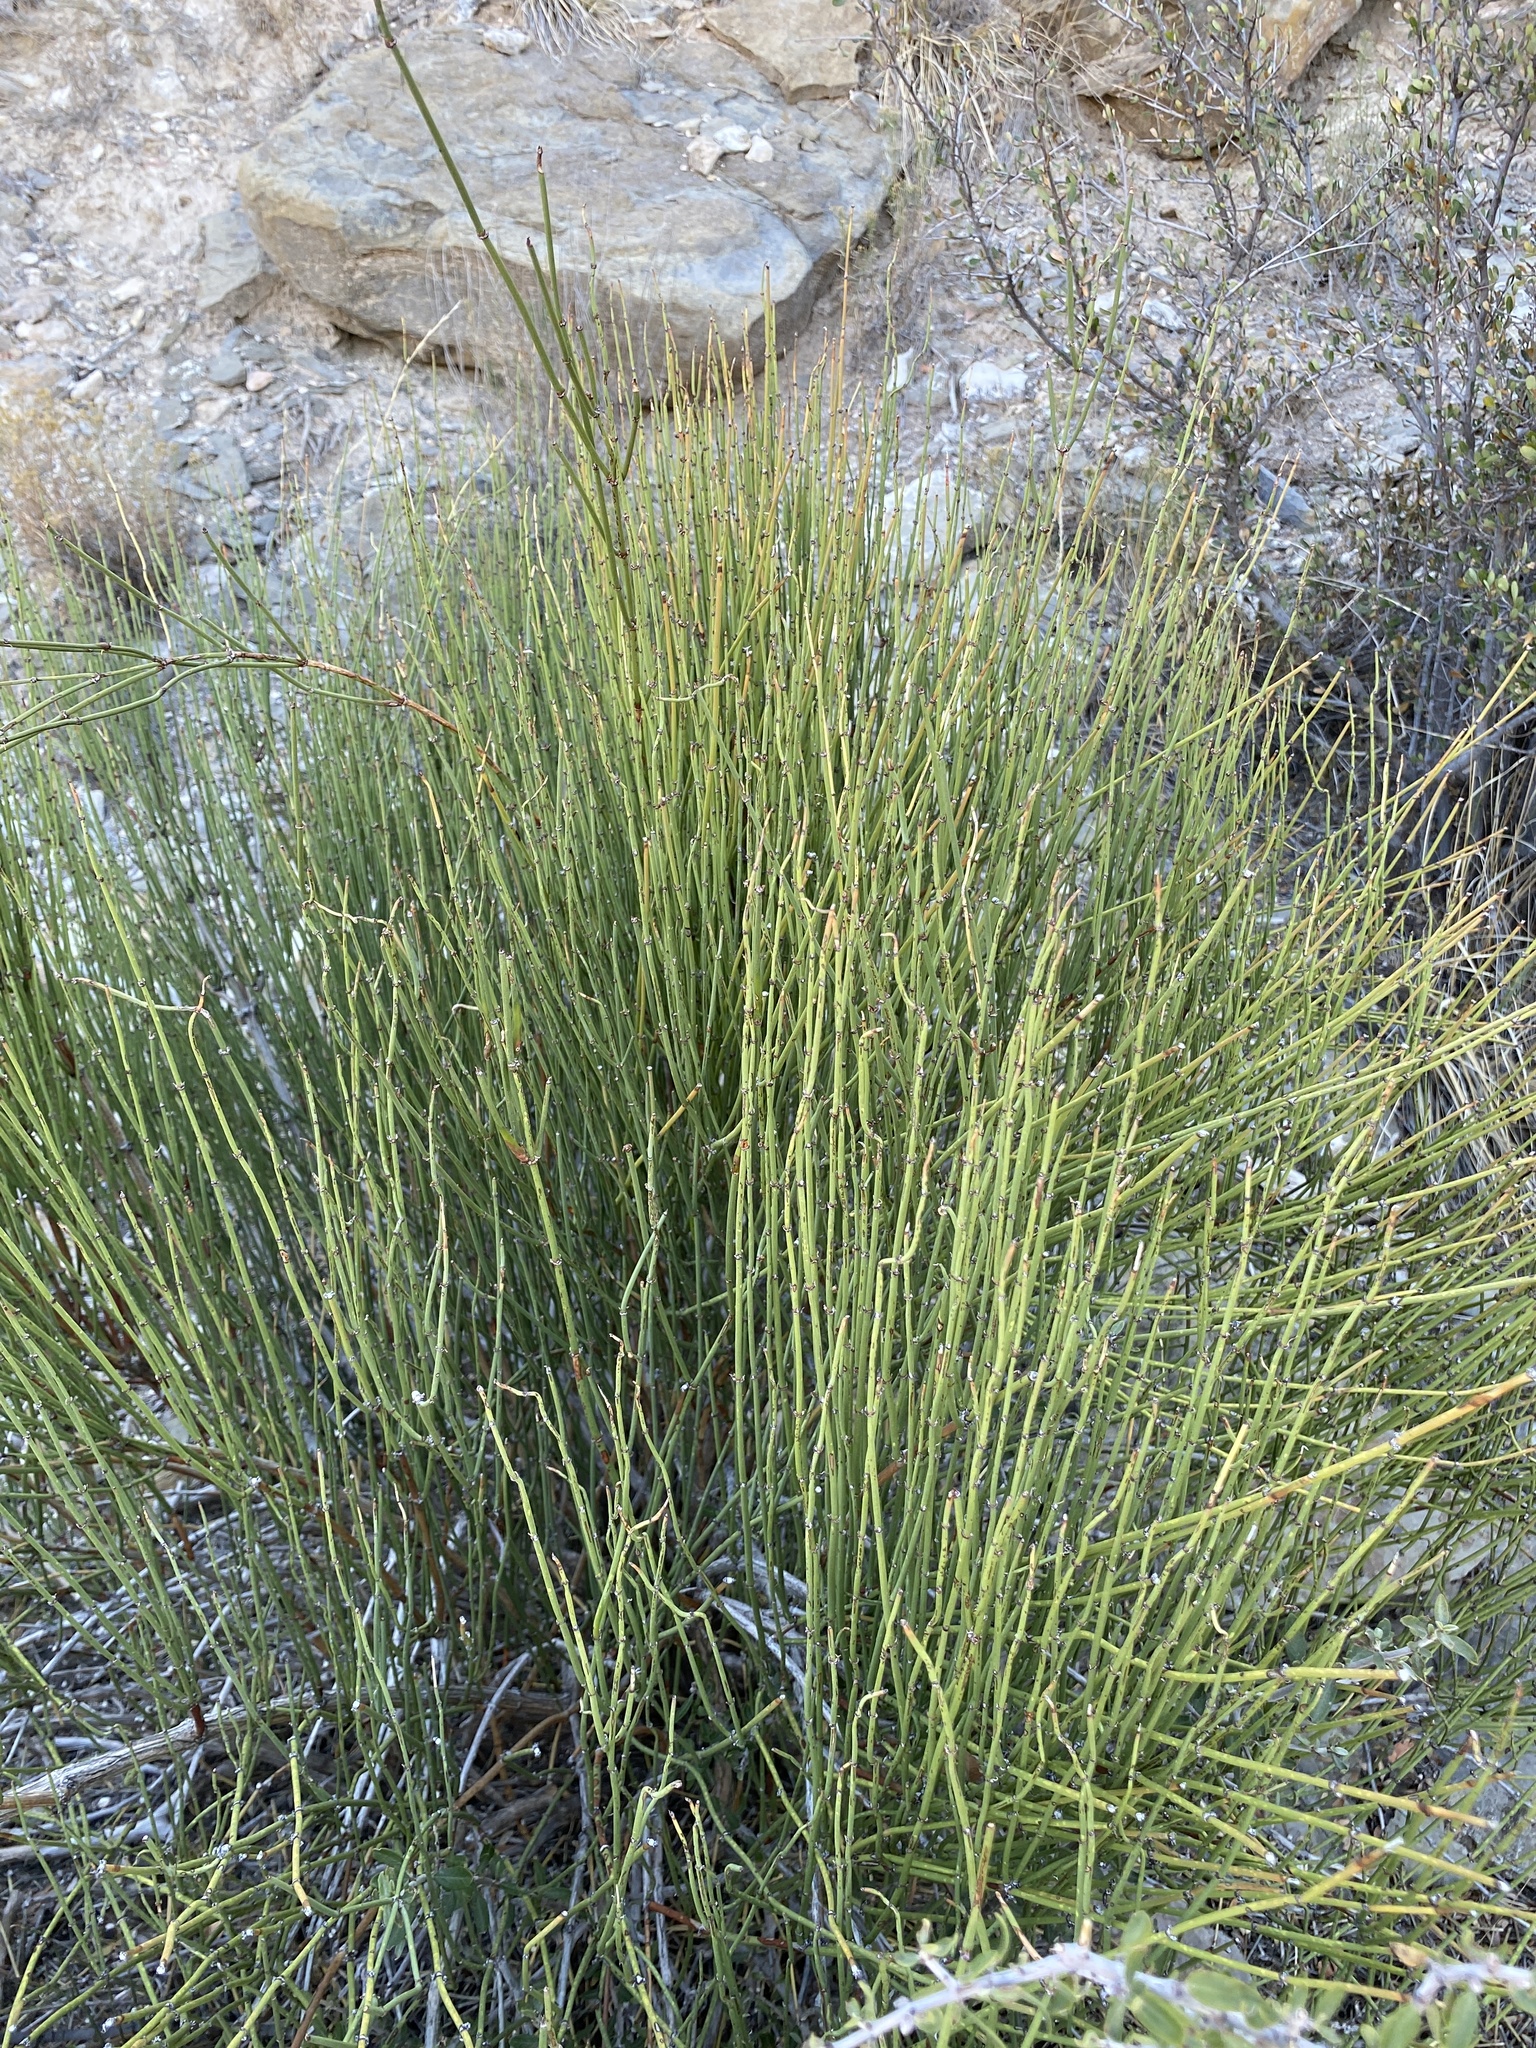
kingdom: Plantae
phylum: Tracheophyta
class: Gnetopsida
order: Ephedrales
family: Ephedraceae
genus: Ephedra
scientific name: Ephedra trifurca
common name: Mexican-tea
